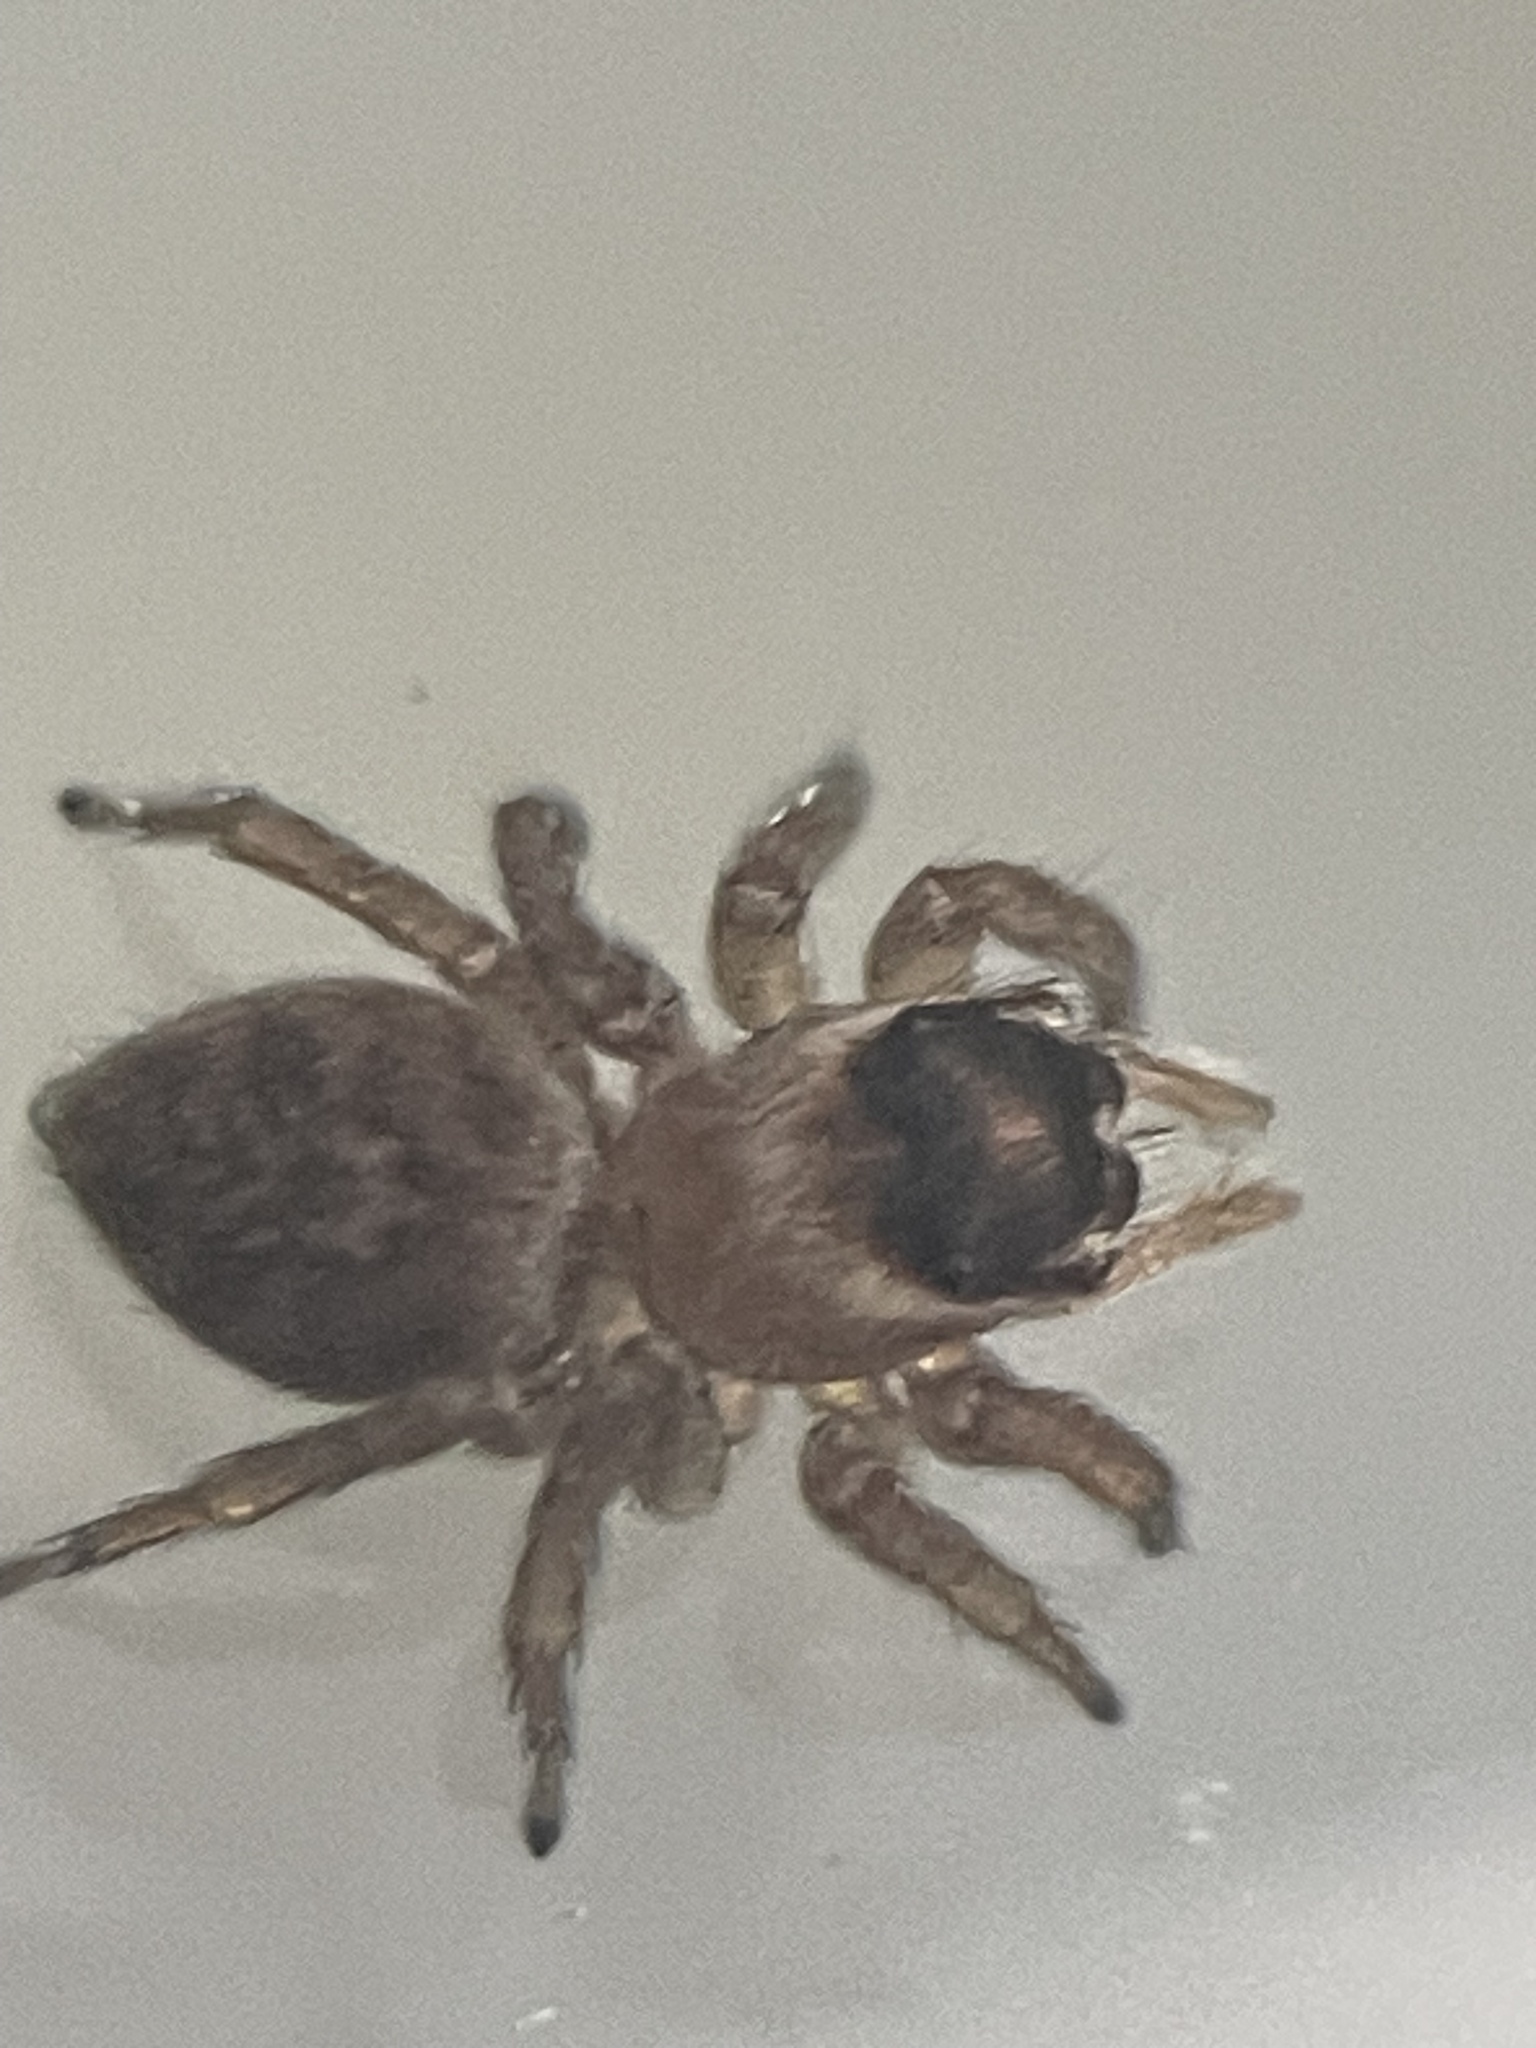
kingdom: Animalia
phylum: Arthropoda
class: Arachnida
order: Araneae
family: Salticidae
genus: Maratus
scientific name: Maratus griseus
